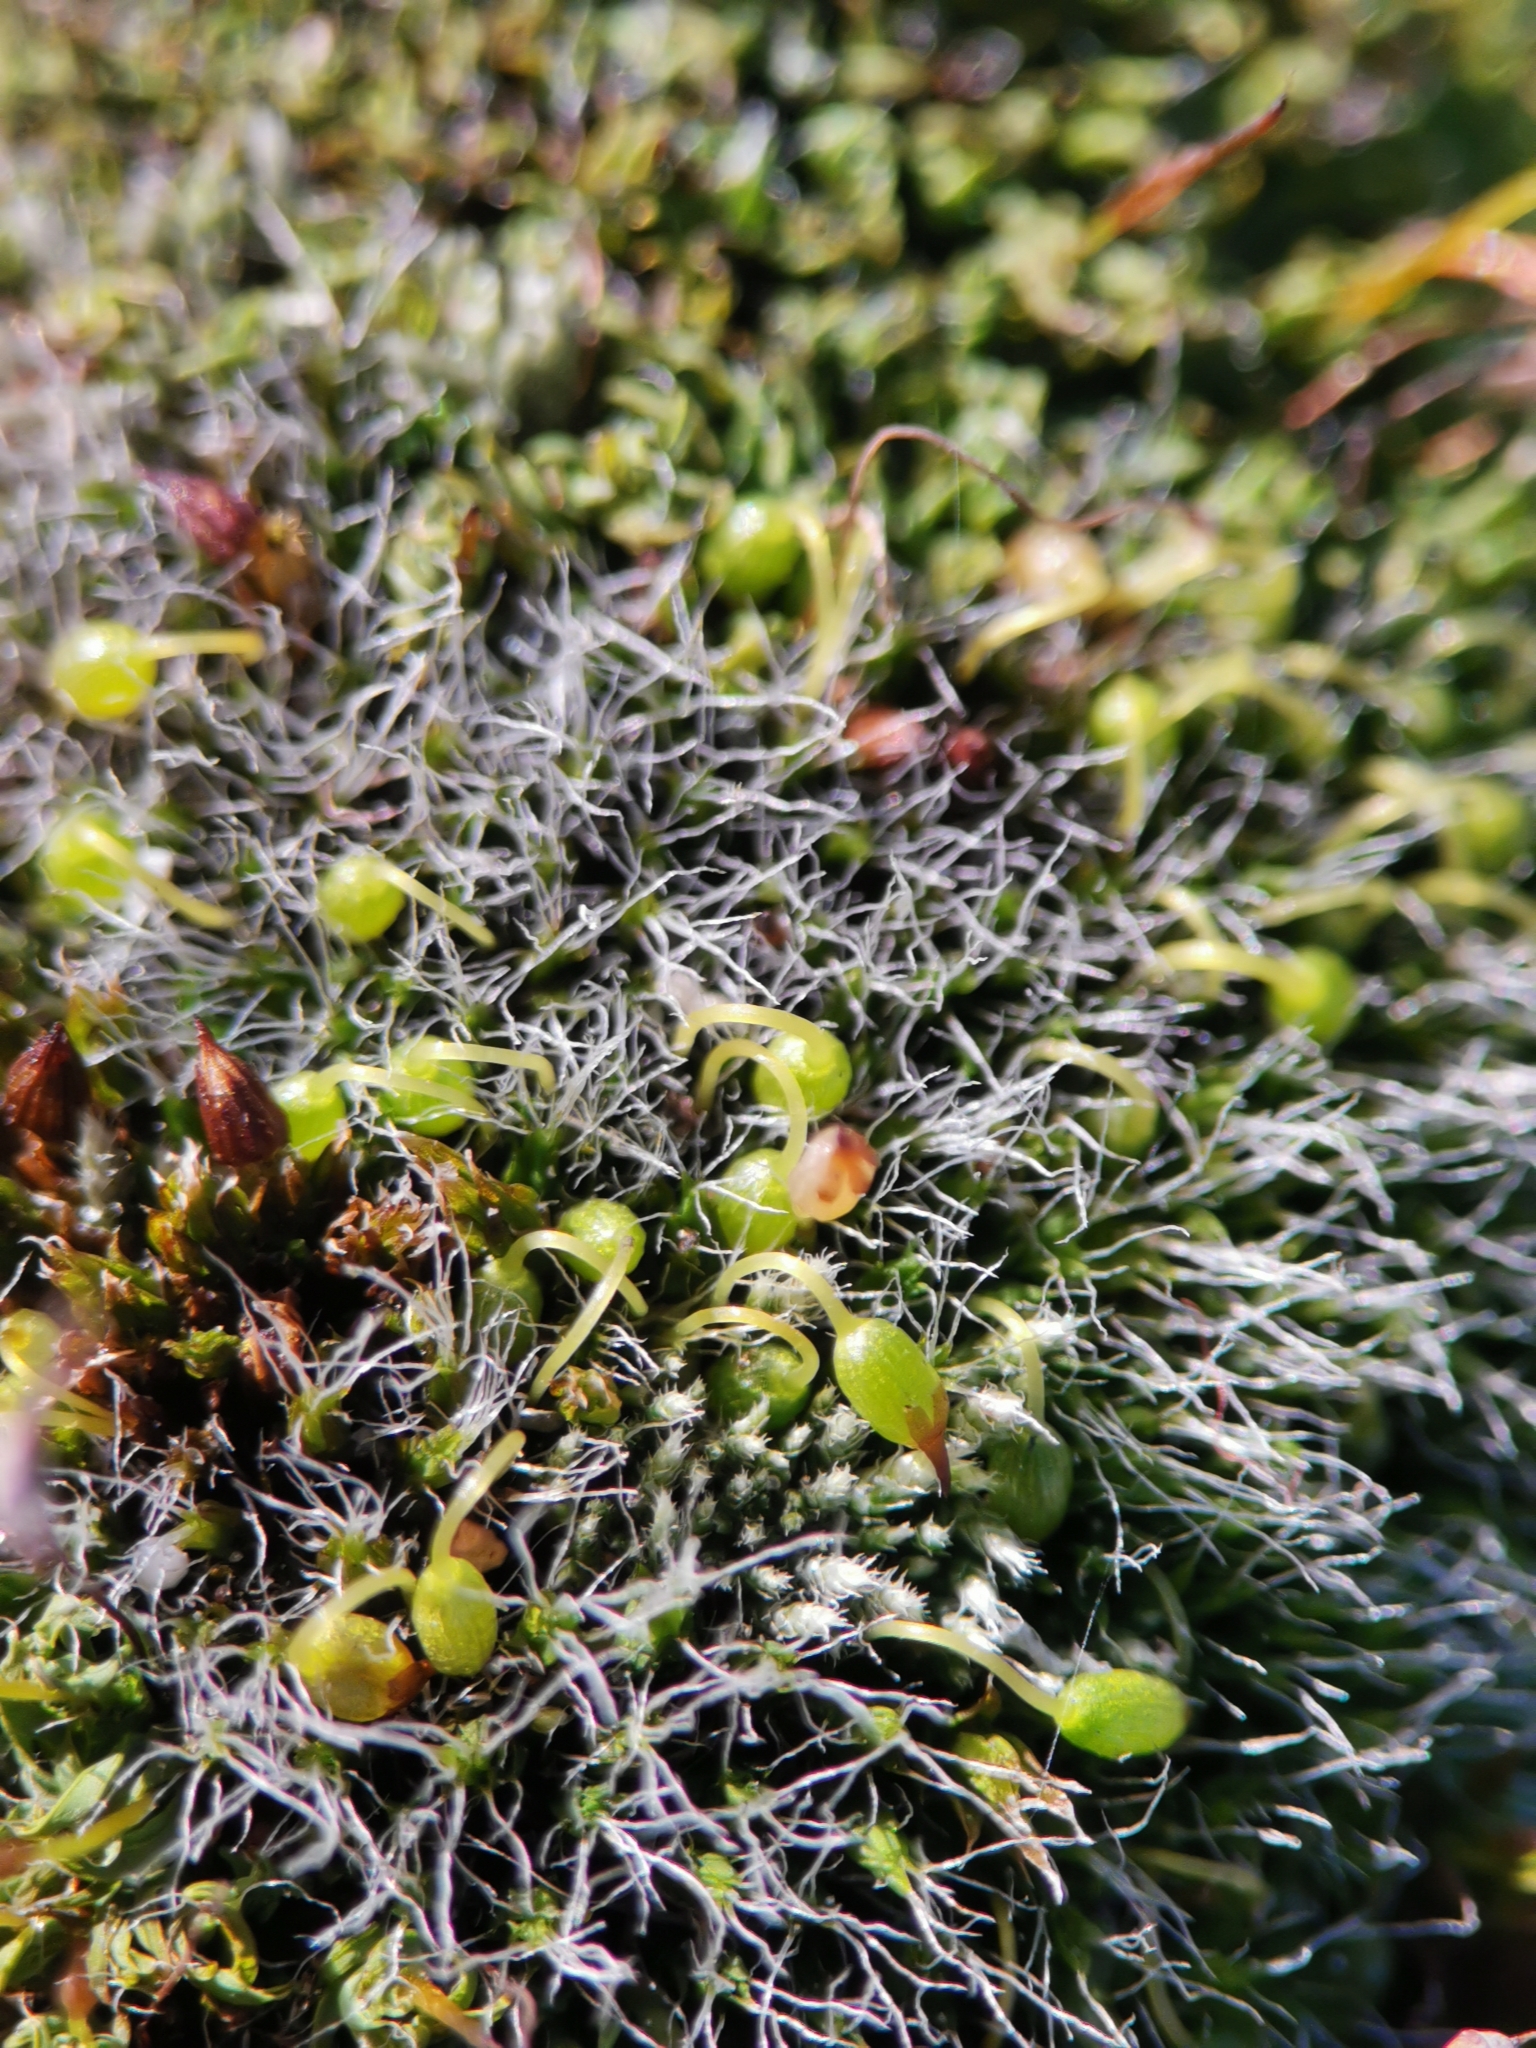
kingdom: Plantae
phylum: Bryophyta
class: Bryopsida
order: Grimmiales
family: Grimmiaceae
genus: Grimmia
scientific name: Grimmia pulvinata
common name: Grey-cushioned grimmia
